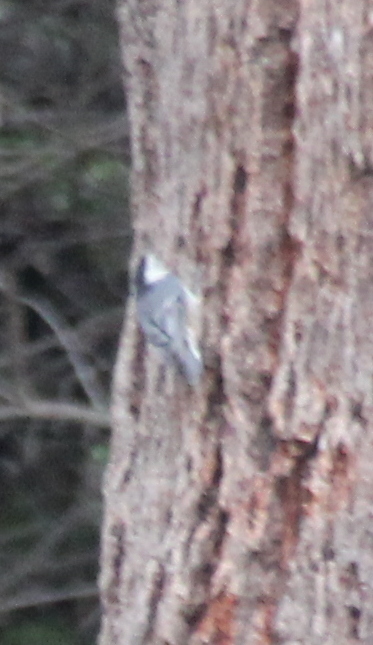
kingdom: Animalia
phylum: Chordata
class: Aves
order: Passeriformes
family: Sittidae
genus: Sitta
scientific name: Sitta carolinensis
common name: White-breasted nuthatch
